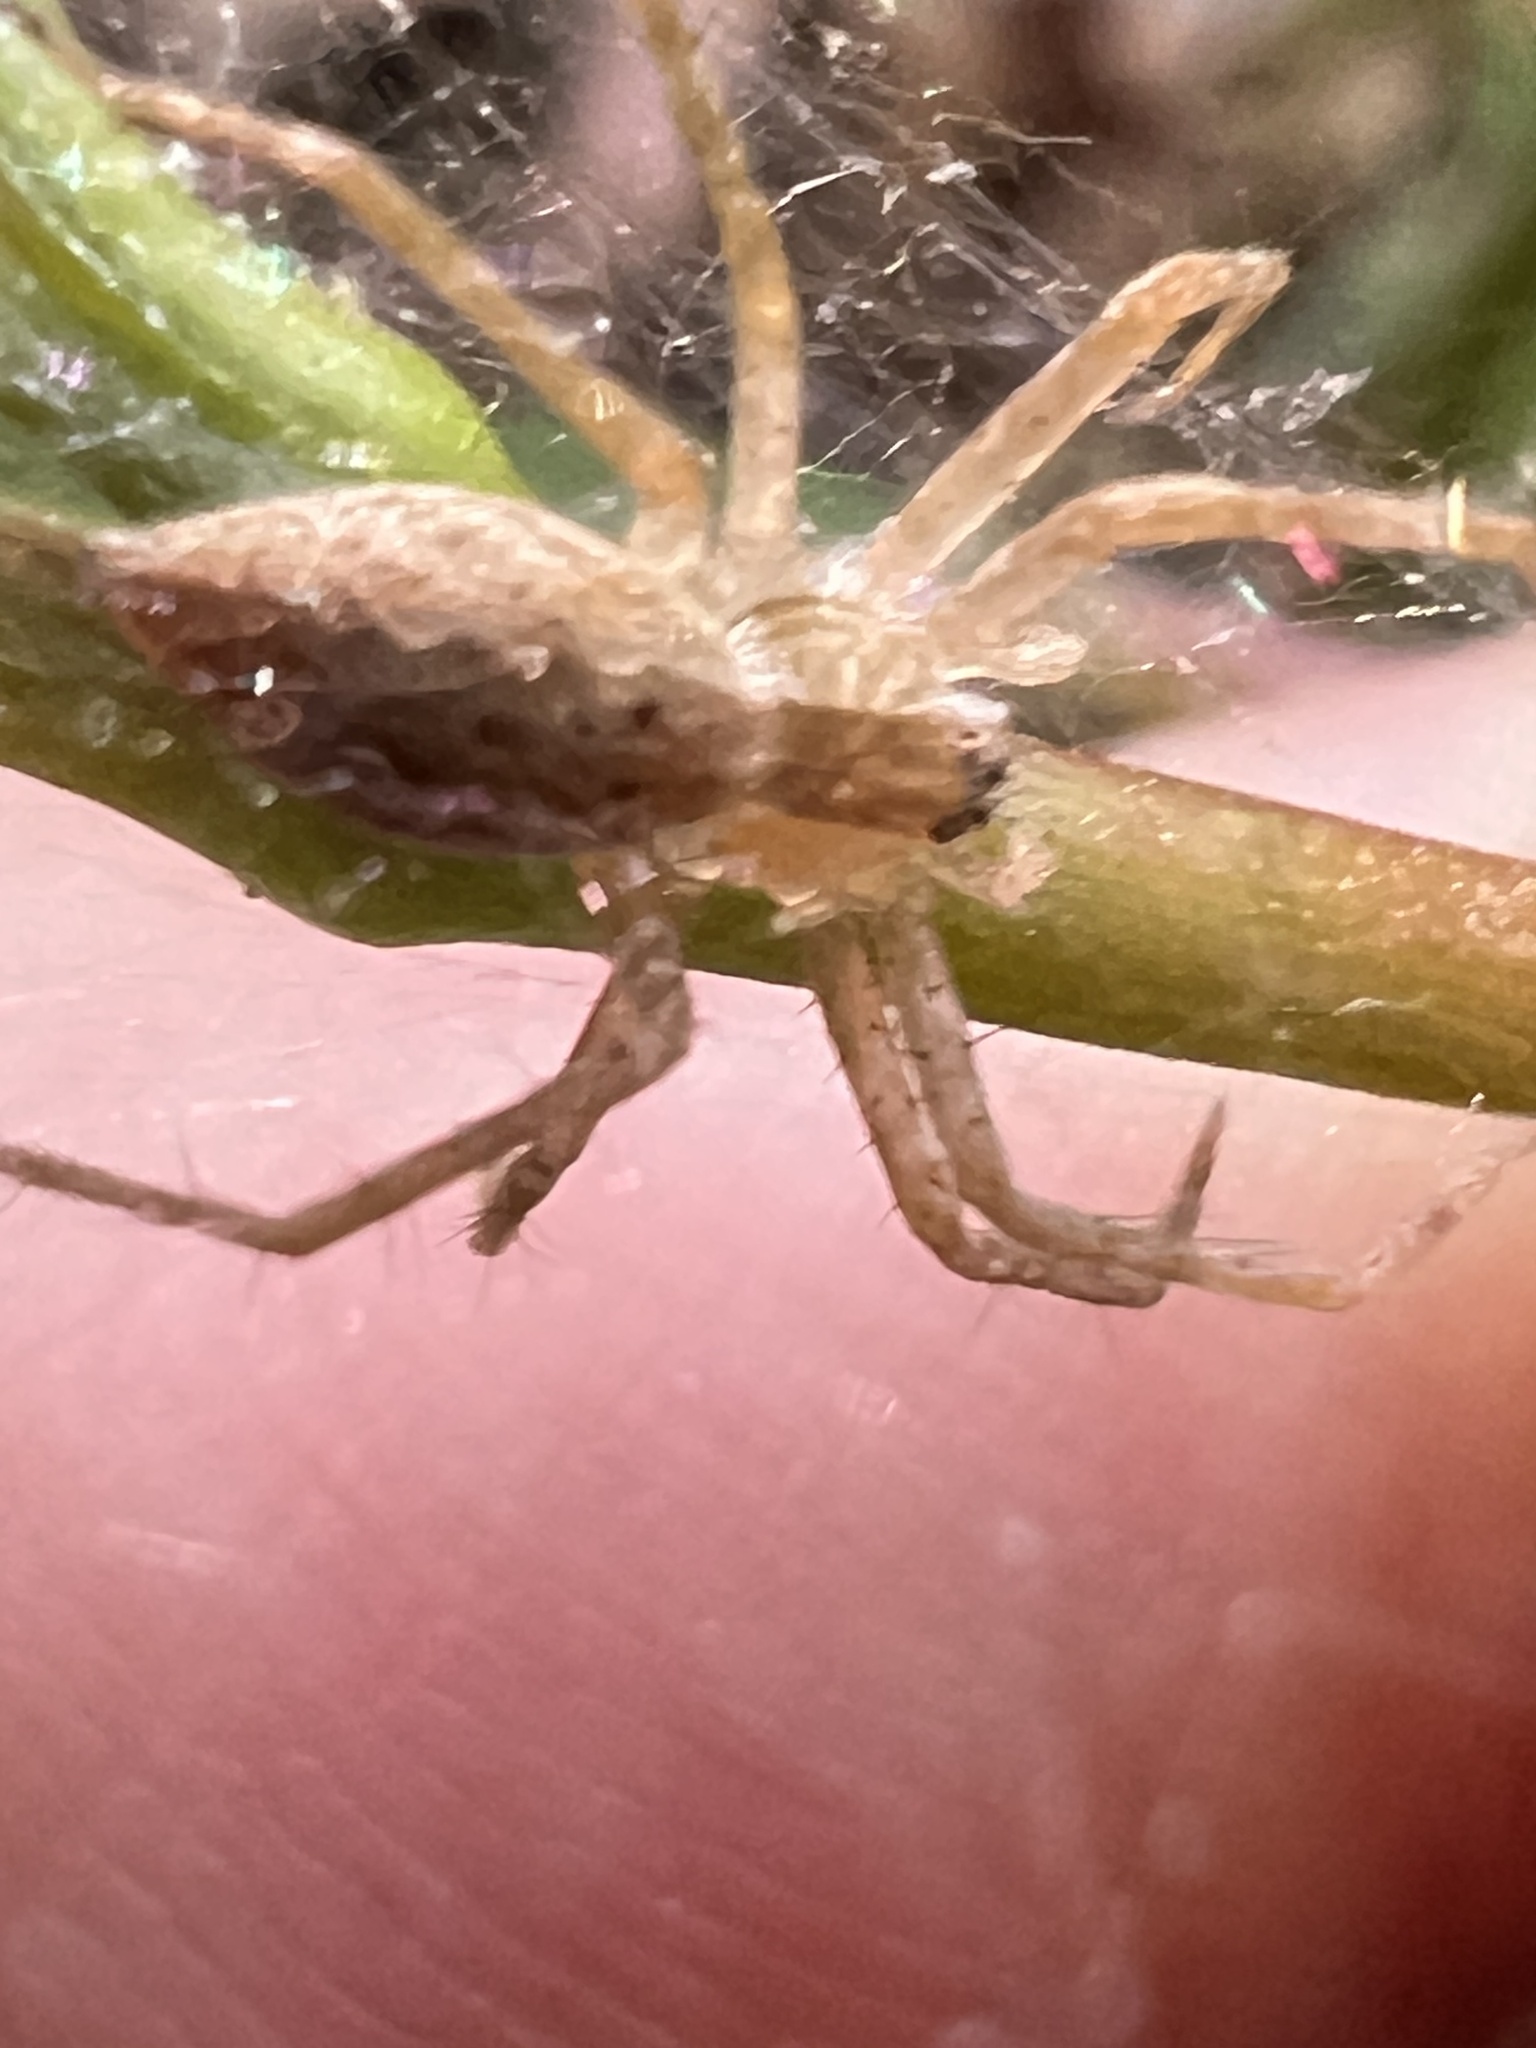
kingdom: Animalia
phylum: Arthropoda
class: Arachnida
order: Araneae
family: Pisauridae
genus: Pisaurina
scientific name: Pisaurina mira
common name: American nursery web spider
